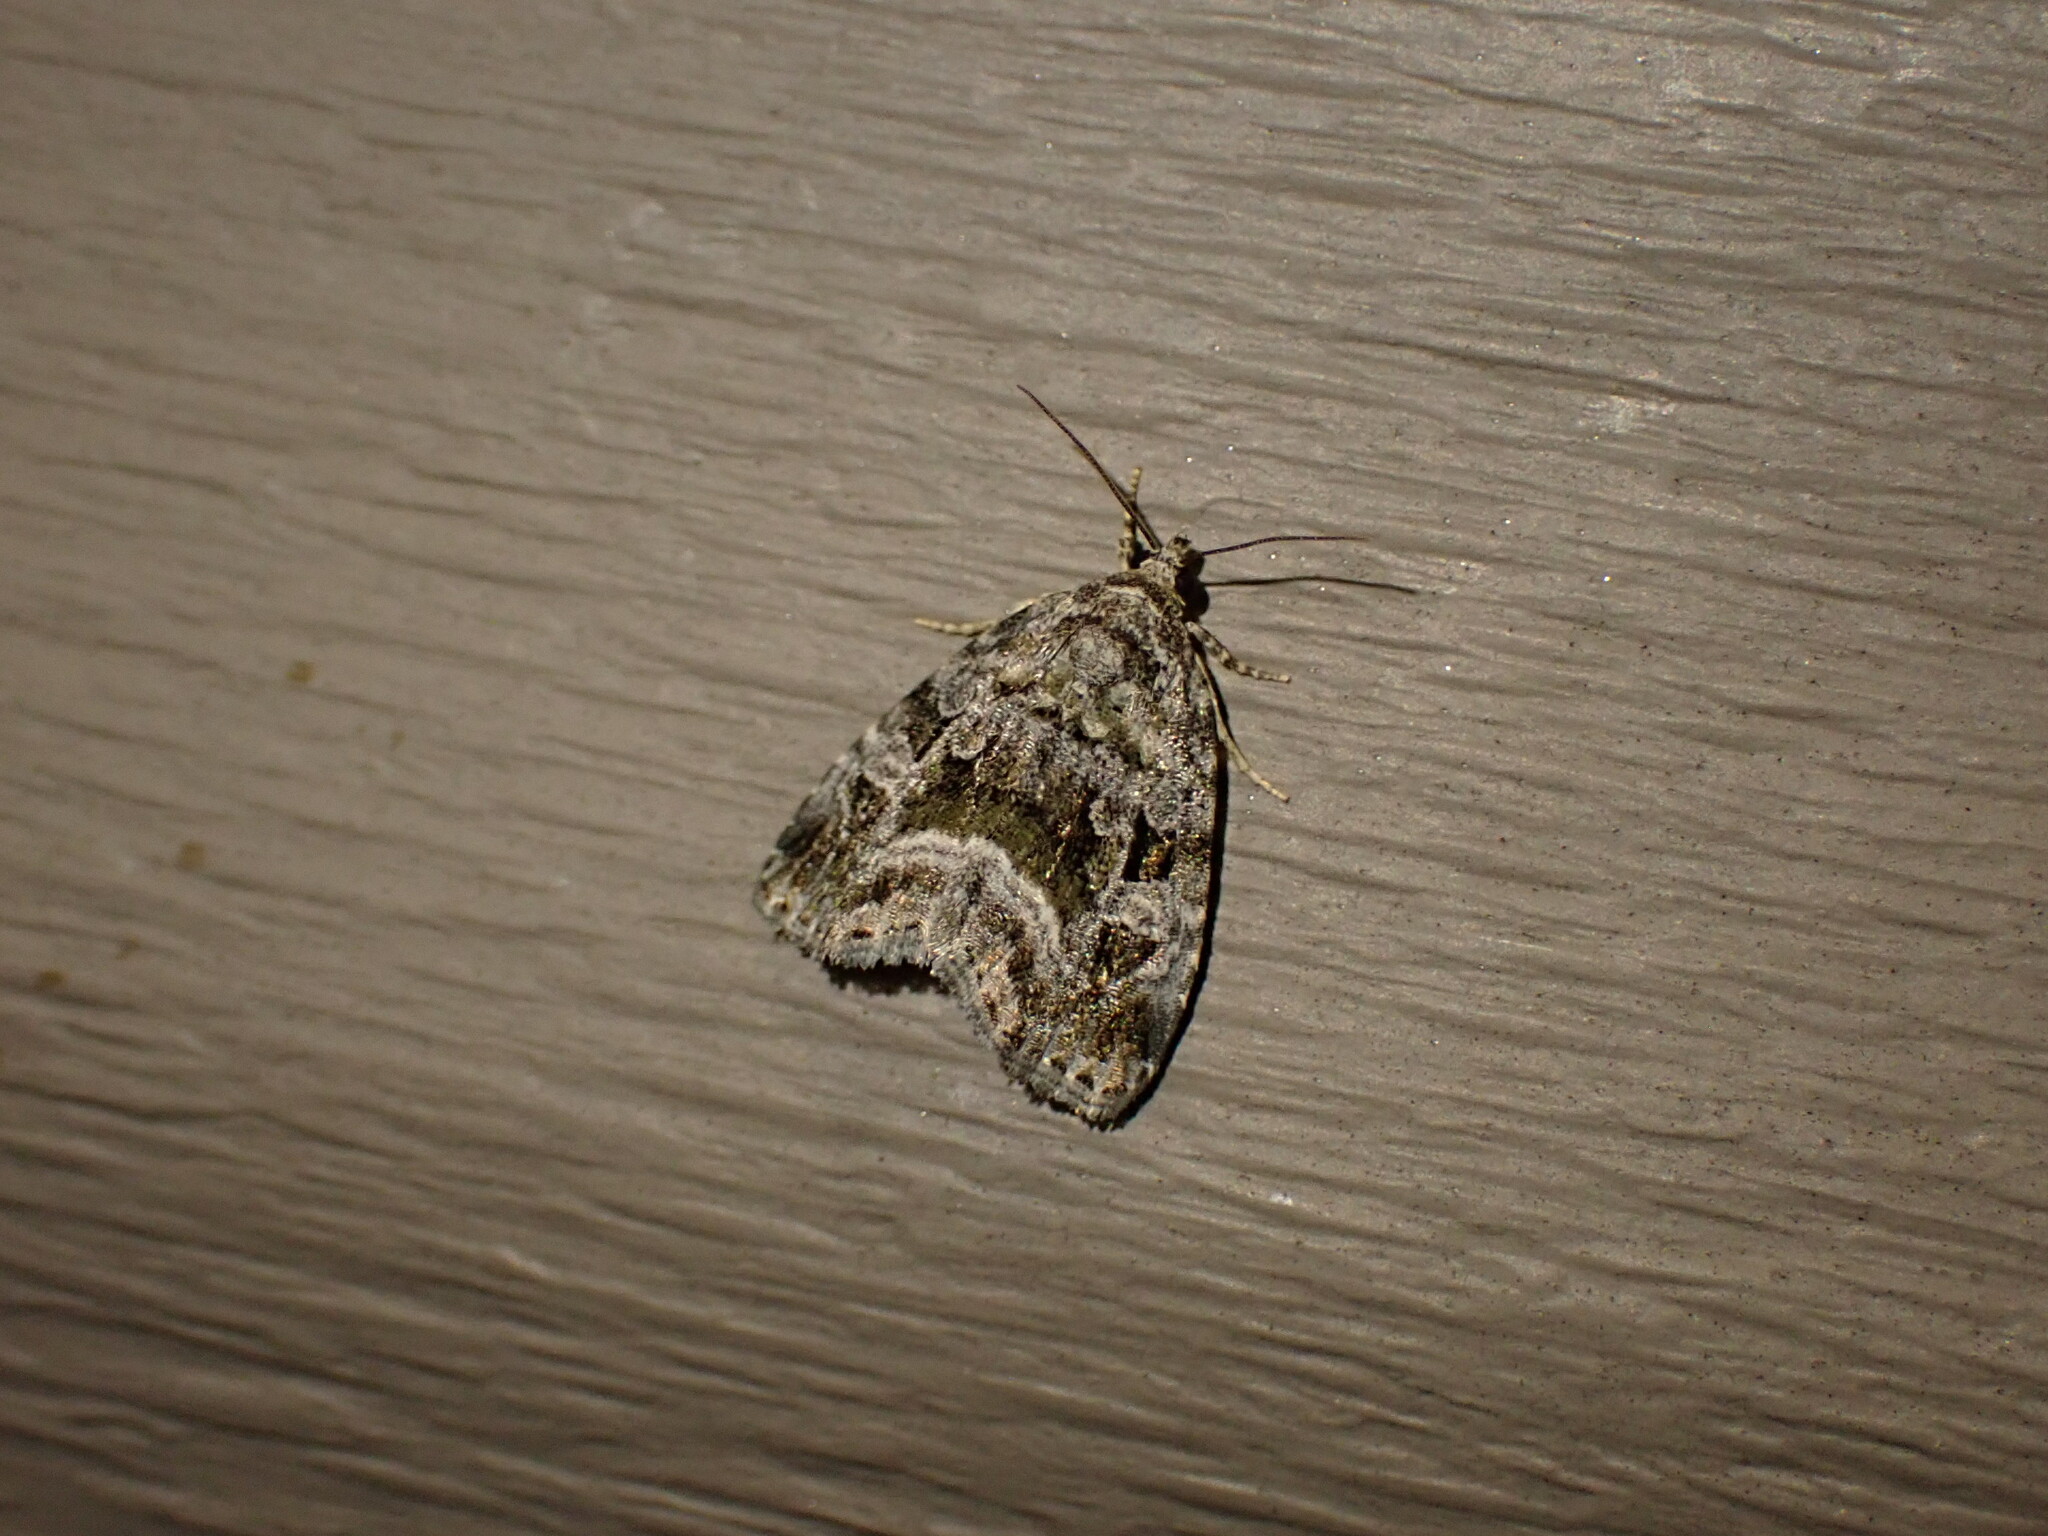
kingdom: Animalia
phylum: Arthropoda
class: Insecta
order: Lepidoptera
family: Noctuidae
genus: Protodeltote
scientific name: Protodeltote muscosula
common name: Large mossy glyph
